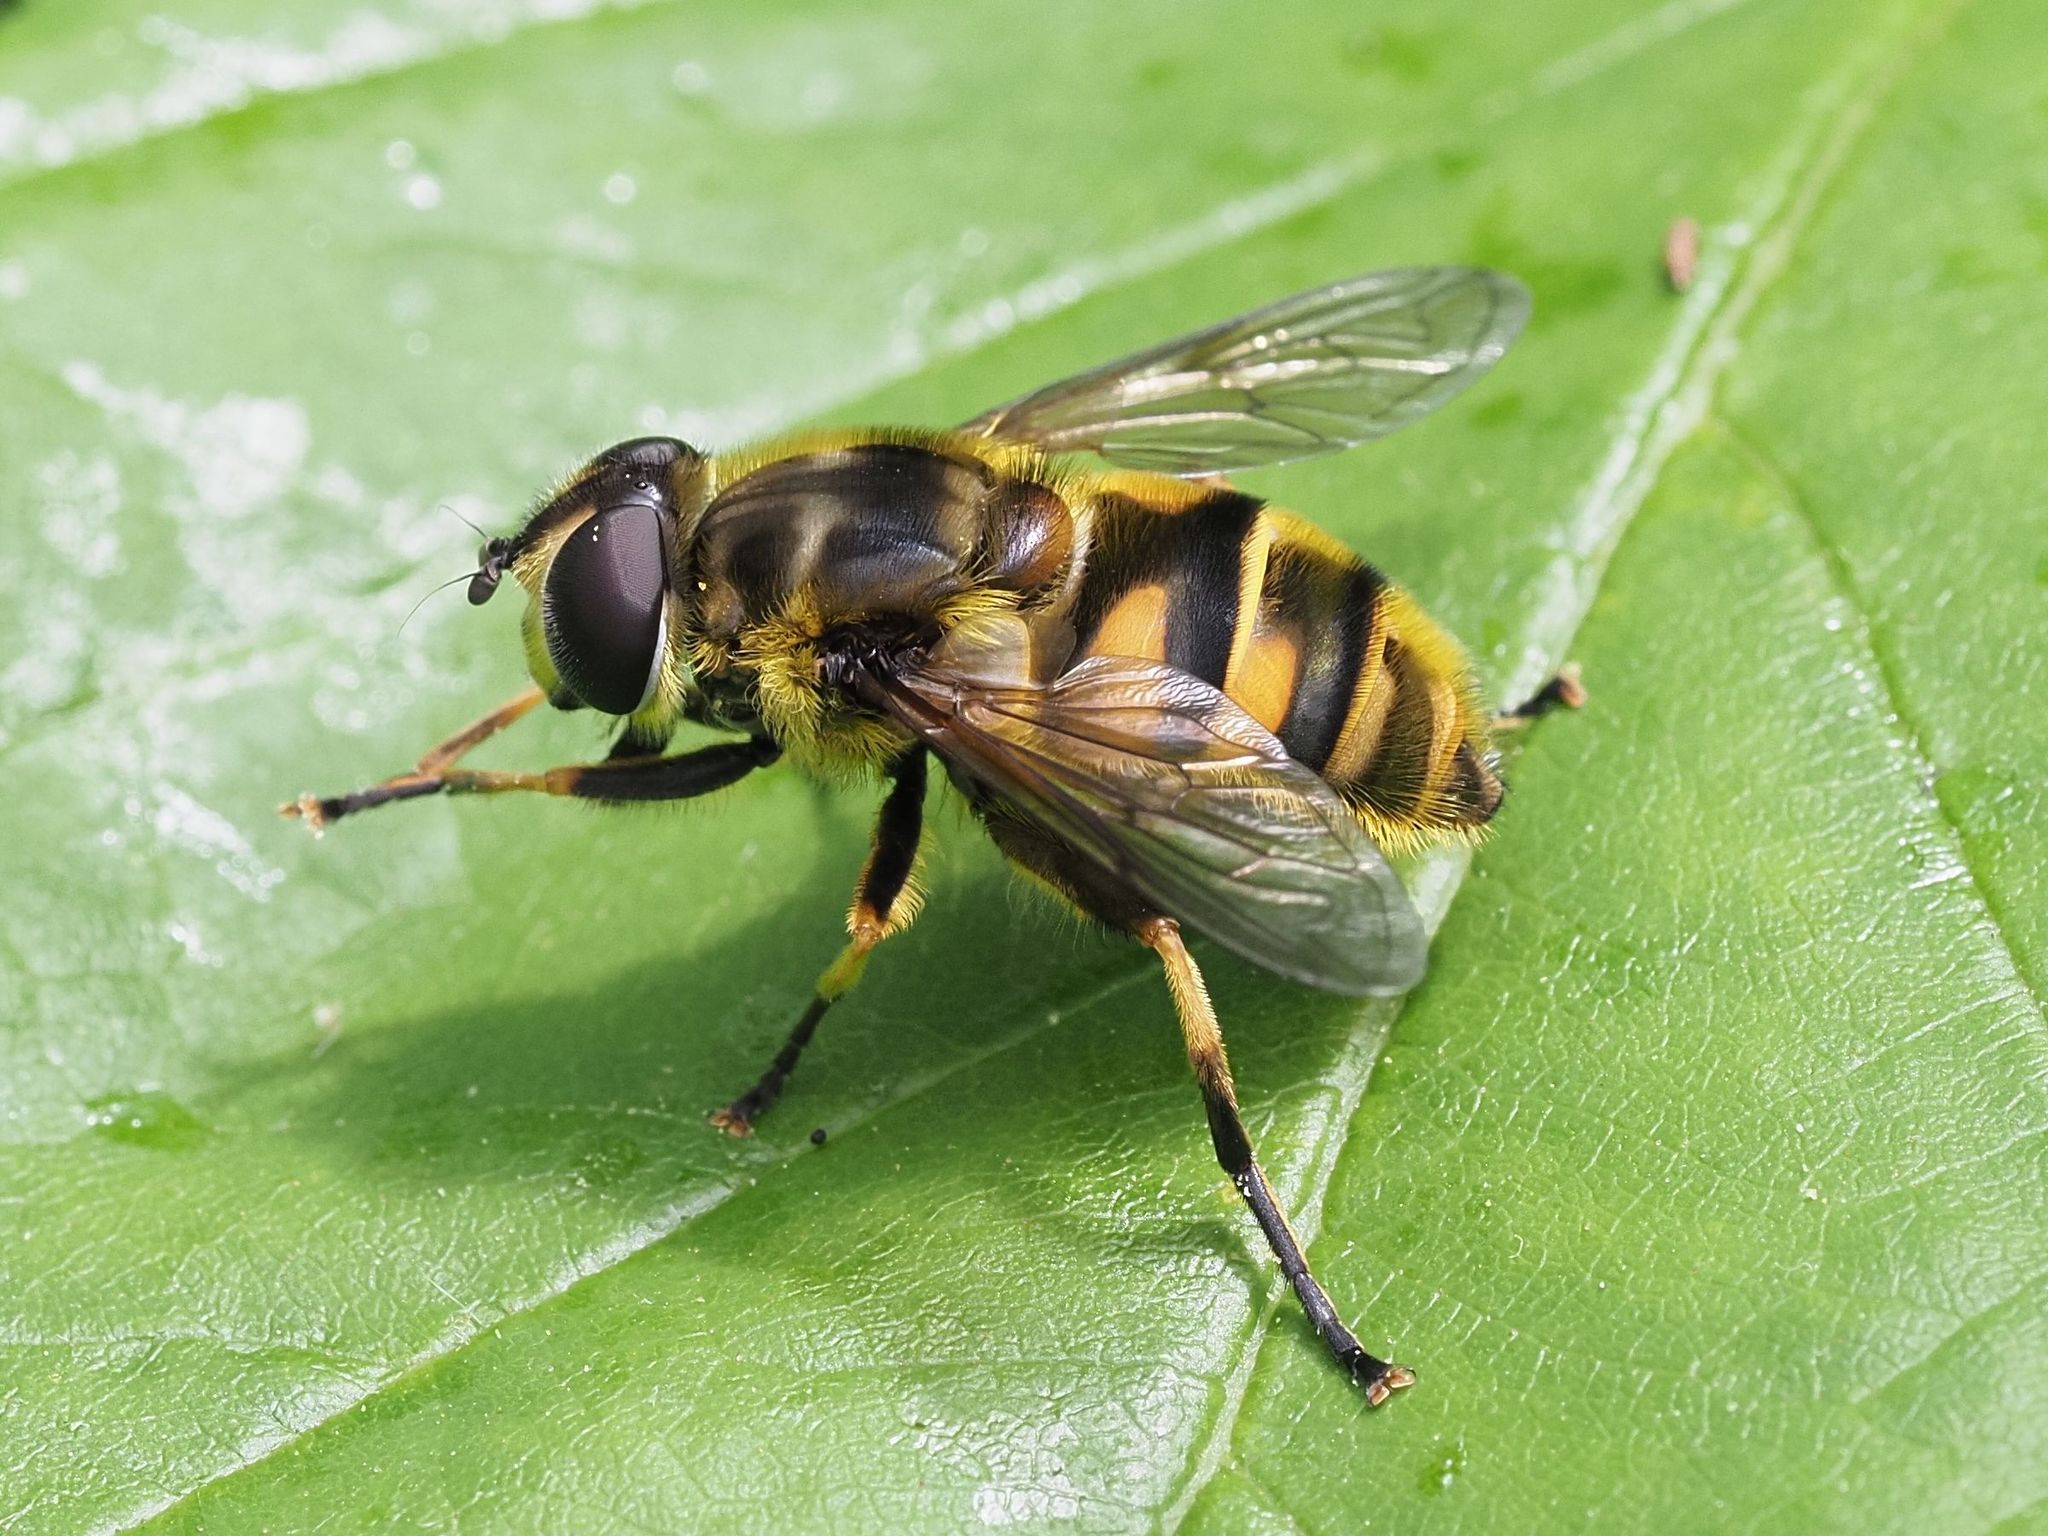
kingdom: Animalia
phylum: Arthropoda
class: Insecta
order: Diptera
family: Syrphidae
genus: Myathropa
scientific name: Myathropa florea
